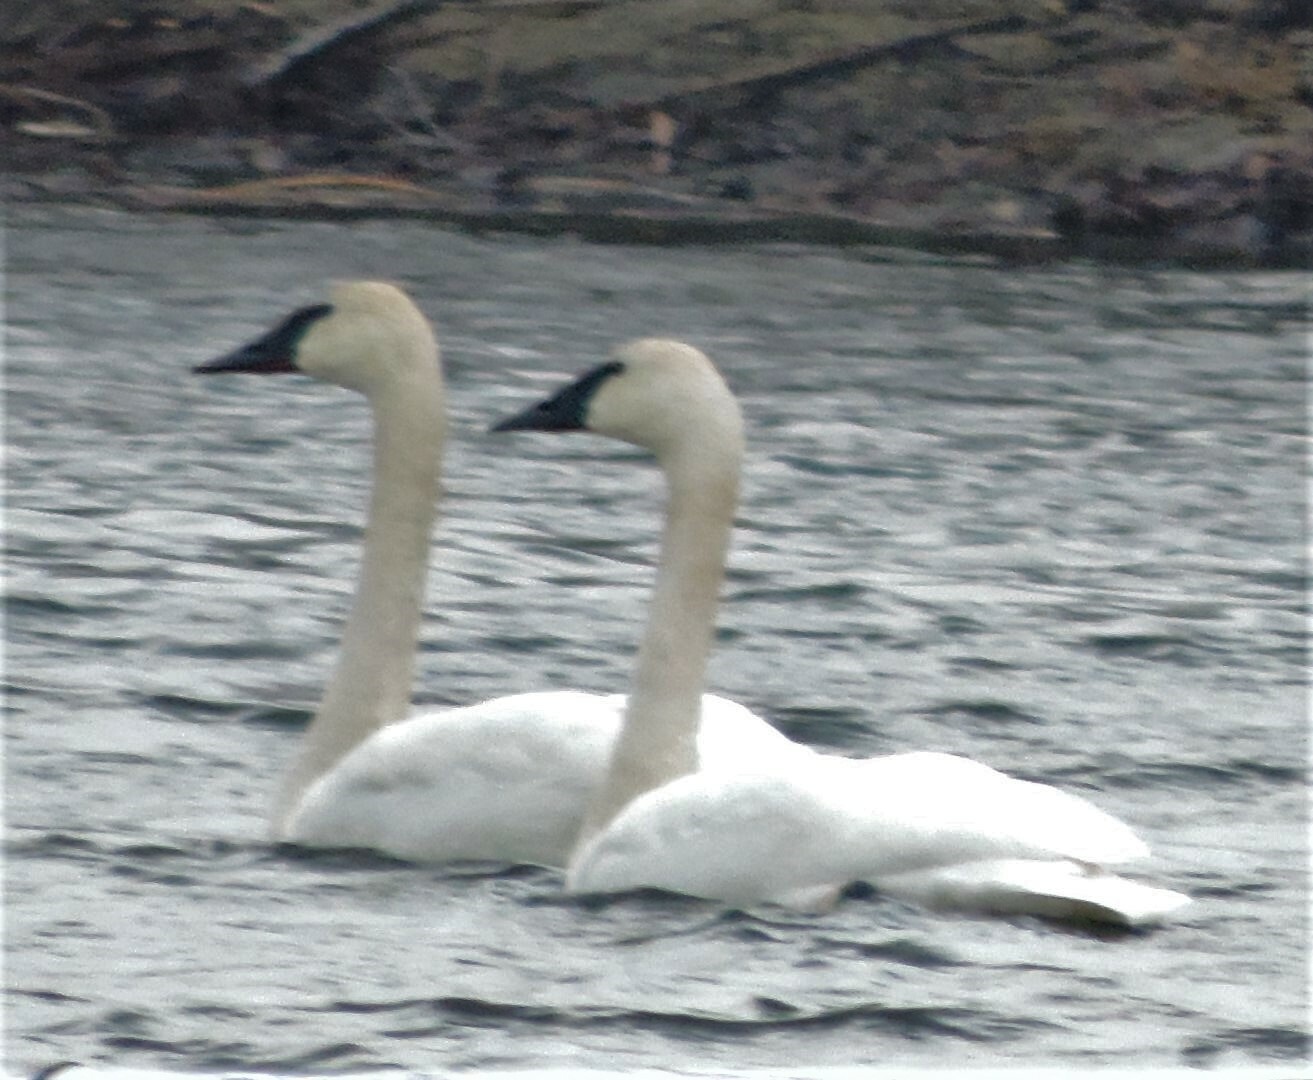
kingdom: Animalia
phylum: Chordata
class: Aves
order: Anseriformes
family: Anatidae
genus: Cygnus
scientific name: Cygnus buccinator
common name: Trumpeter swan
